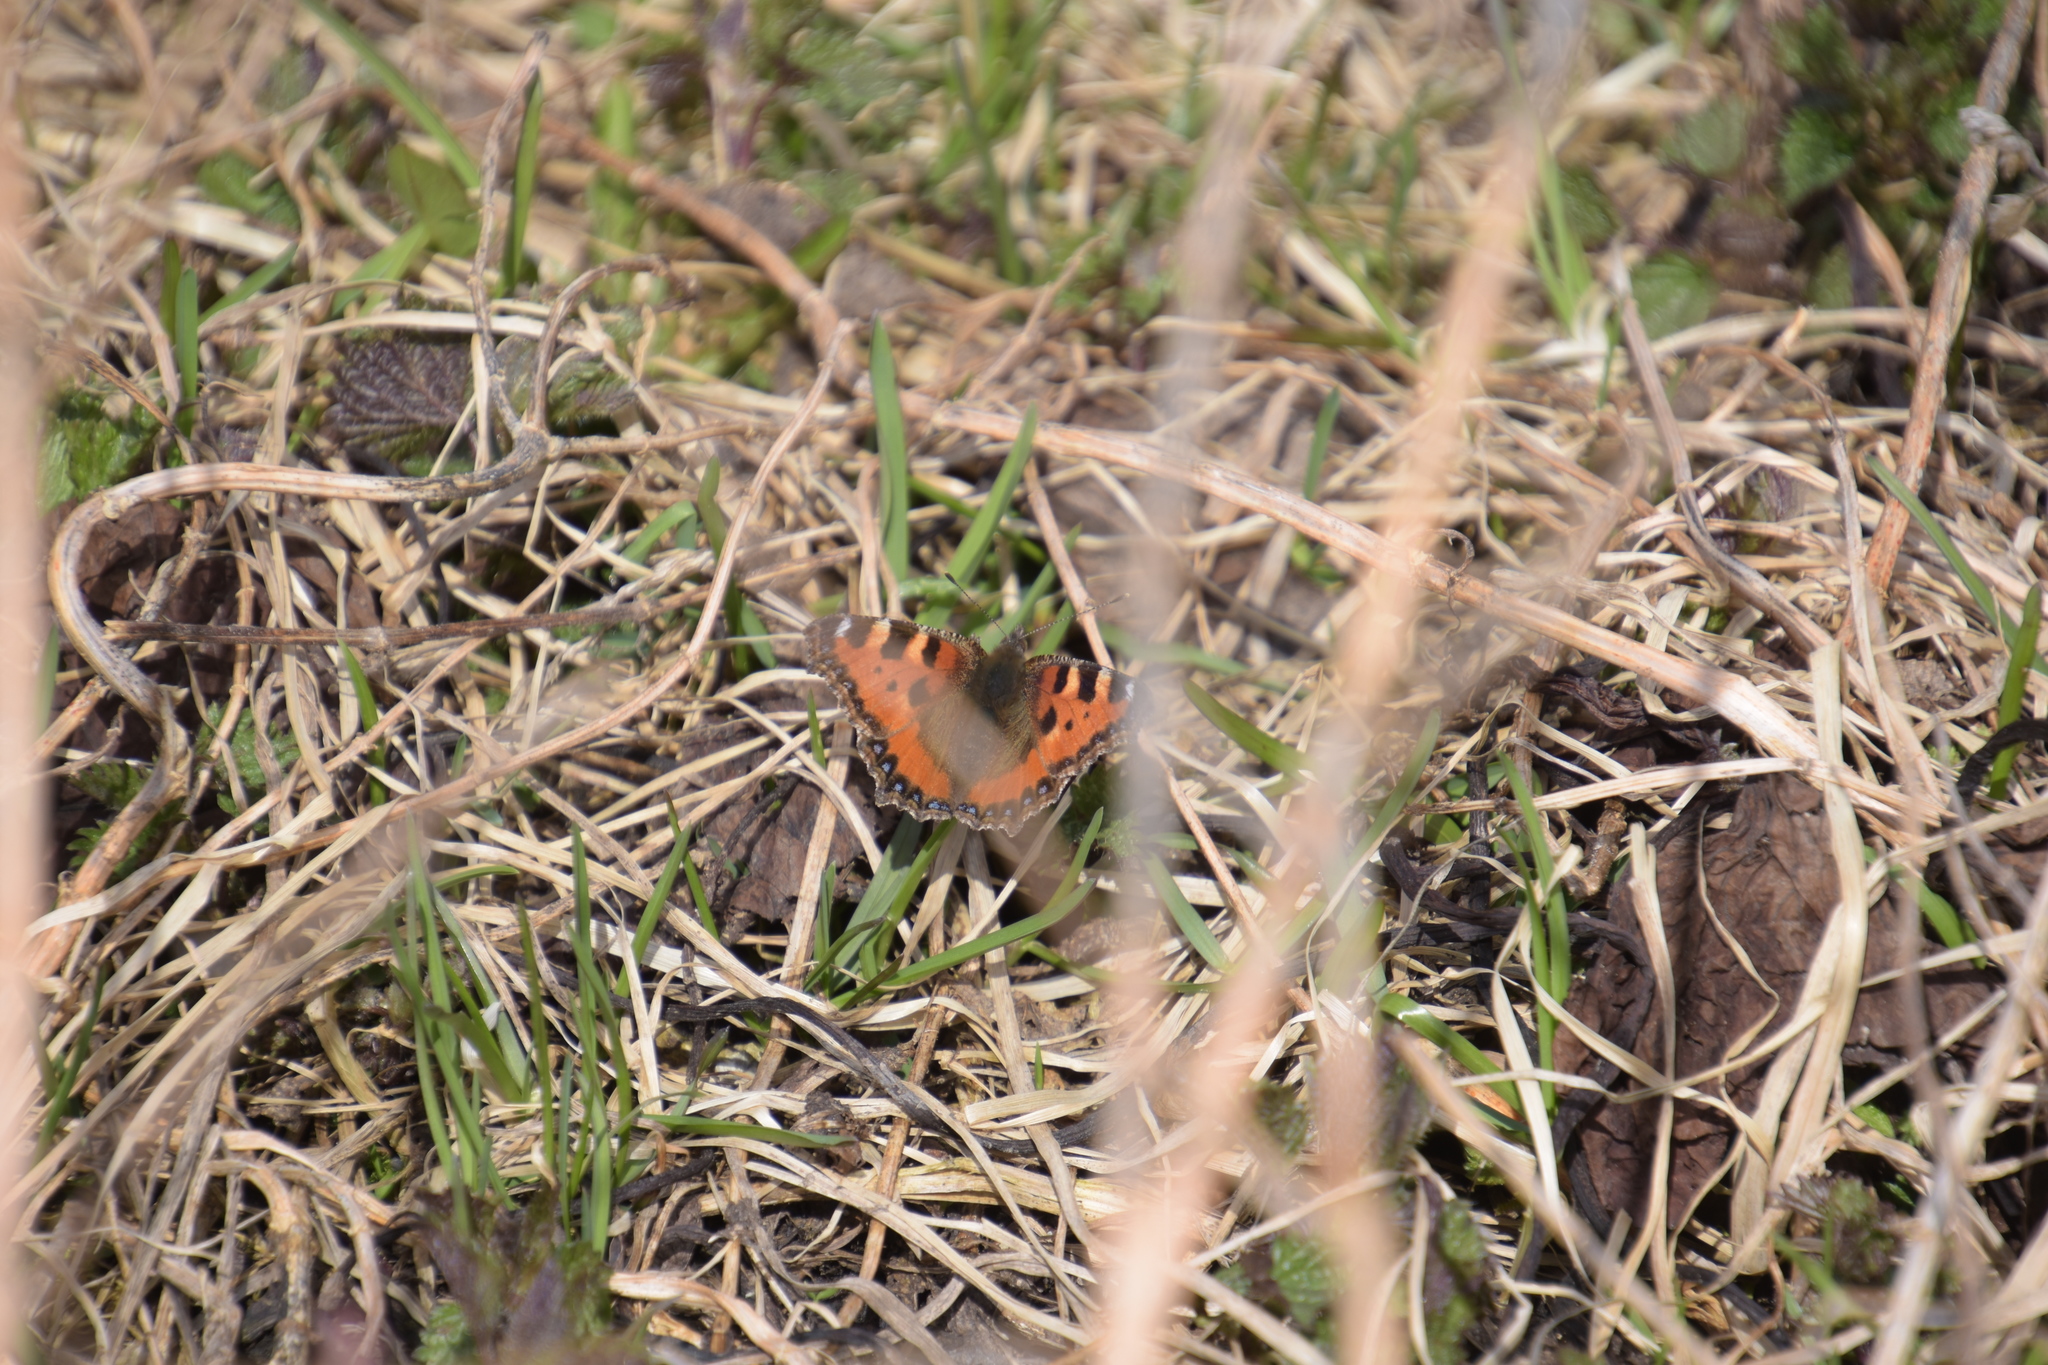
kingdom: Animalia
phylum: Arthropoda
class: Insecta
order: Lepidoptera
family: Nymphalidae
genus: Aglais
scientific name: Aglais urticae
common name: Small tortoiseshell
